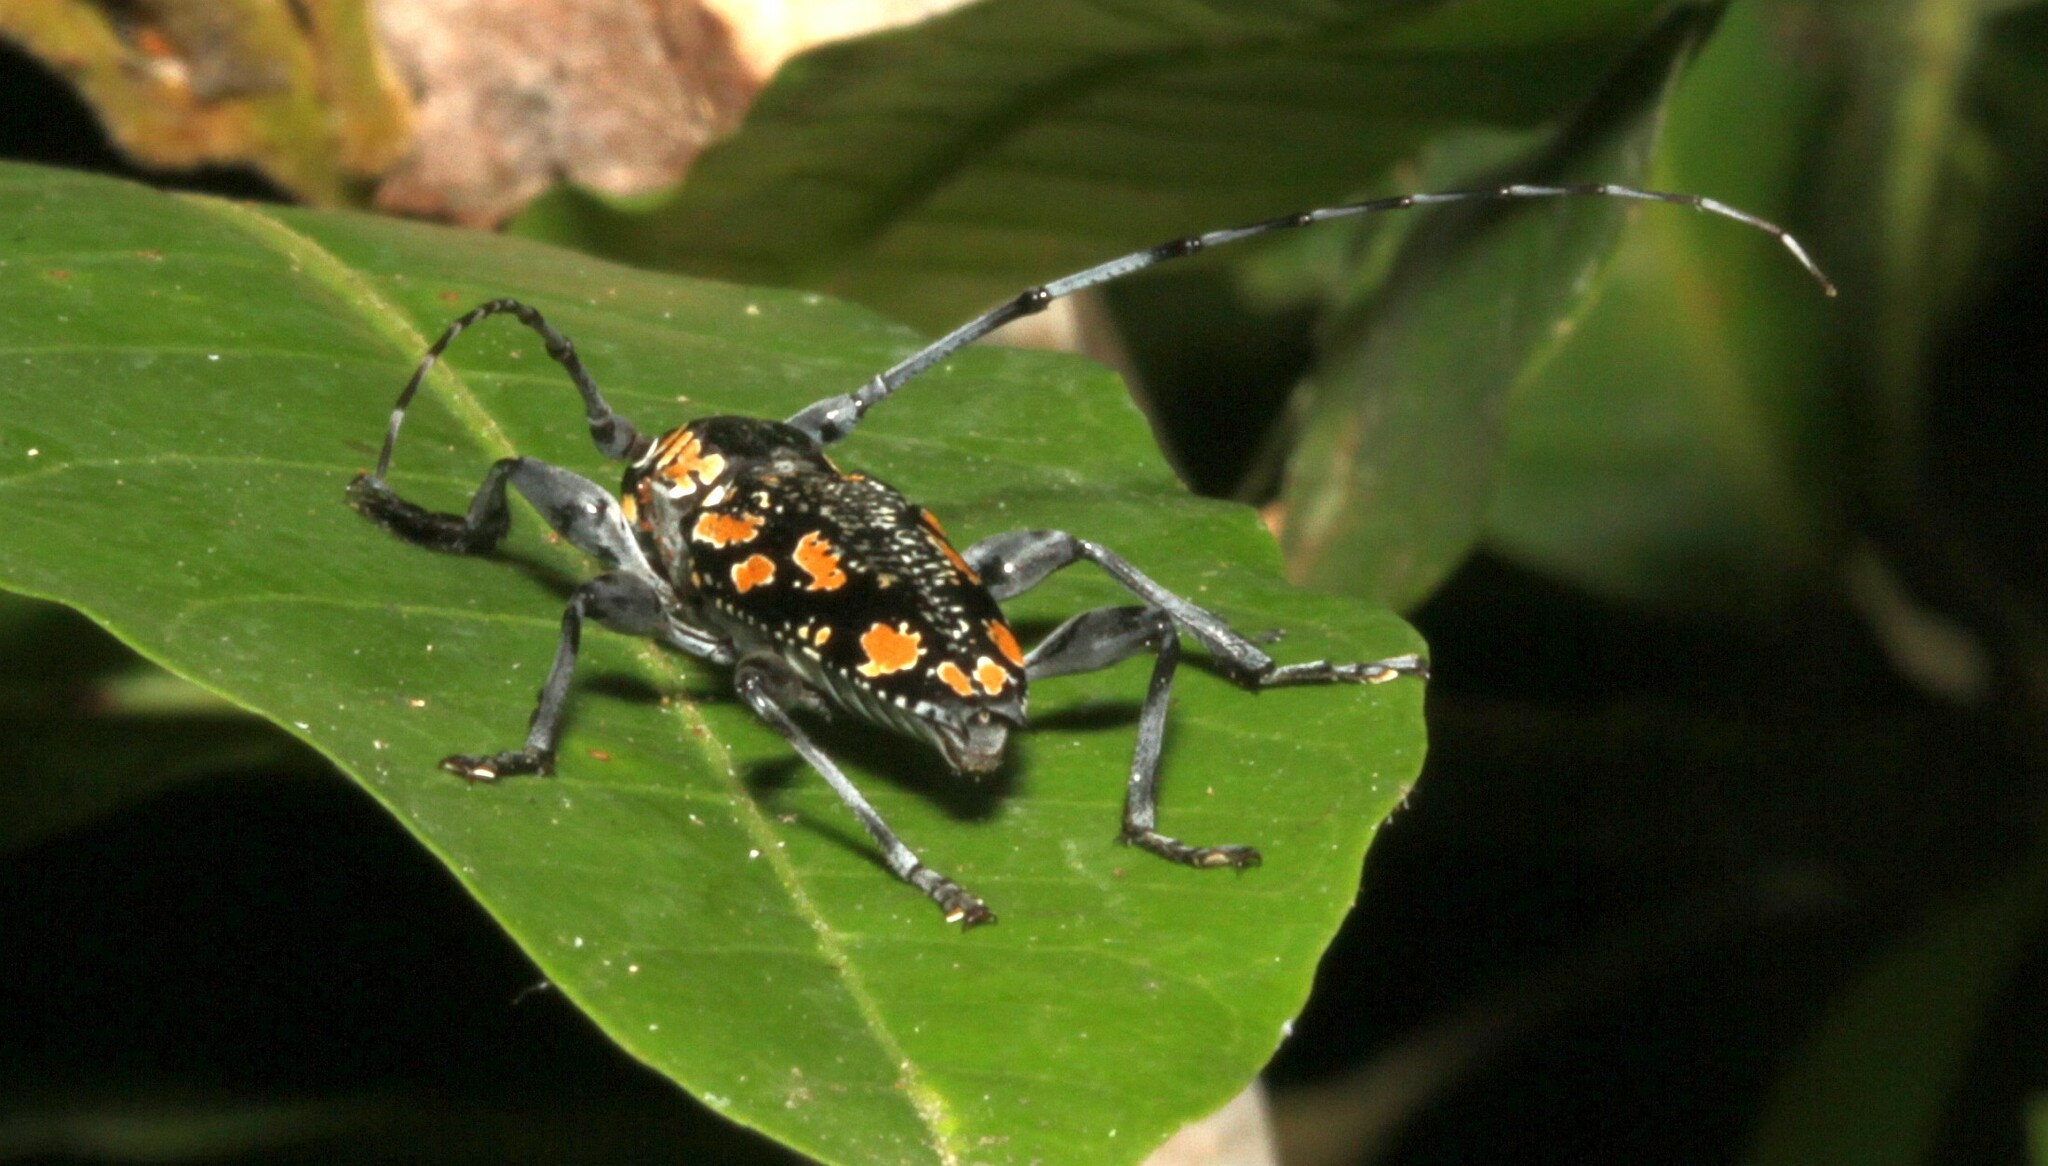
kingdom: Animalia
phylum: Arthropoda
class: Insecta
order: Coleoptera
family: Cerambycidae
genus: Aegomorphus
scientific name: Aegomorphus
